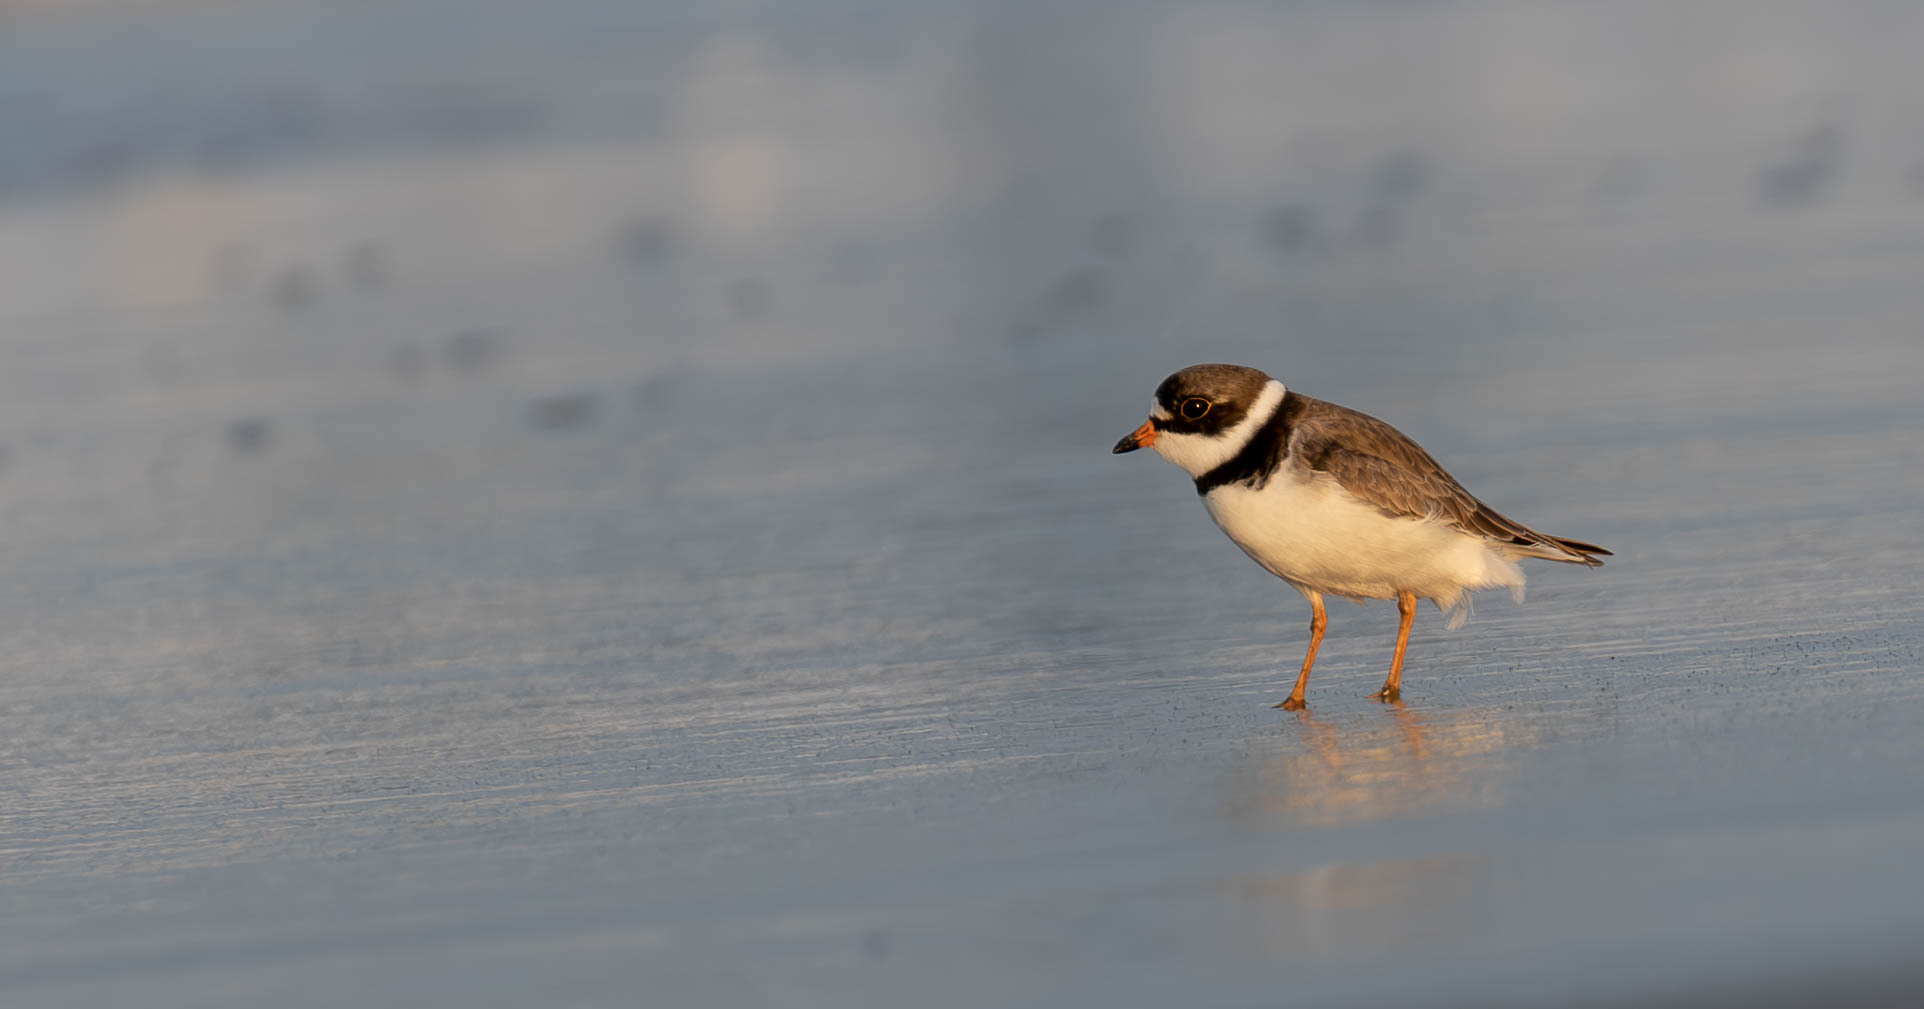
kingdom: Animalia
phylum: Chordata
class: Aves
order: Charadriiformes
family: Charadriidae
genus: Charadrius
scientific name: Charadrius semipalmatus
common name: Semipalmated plover
